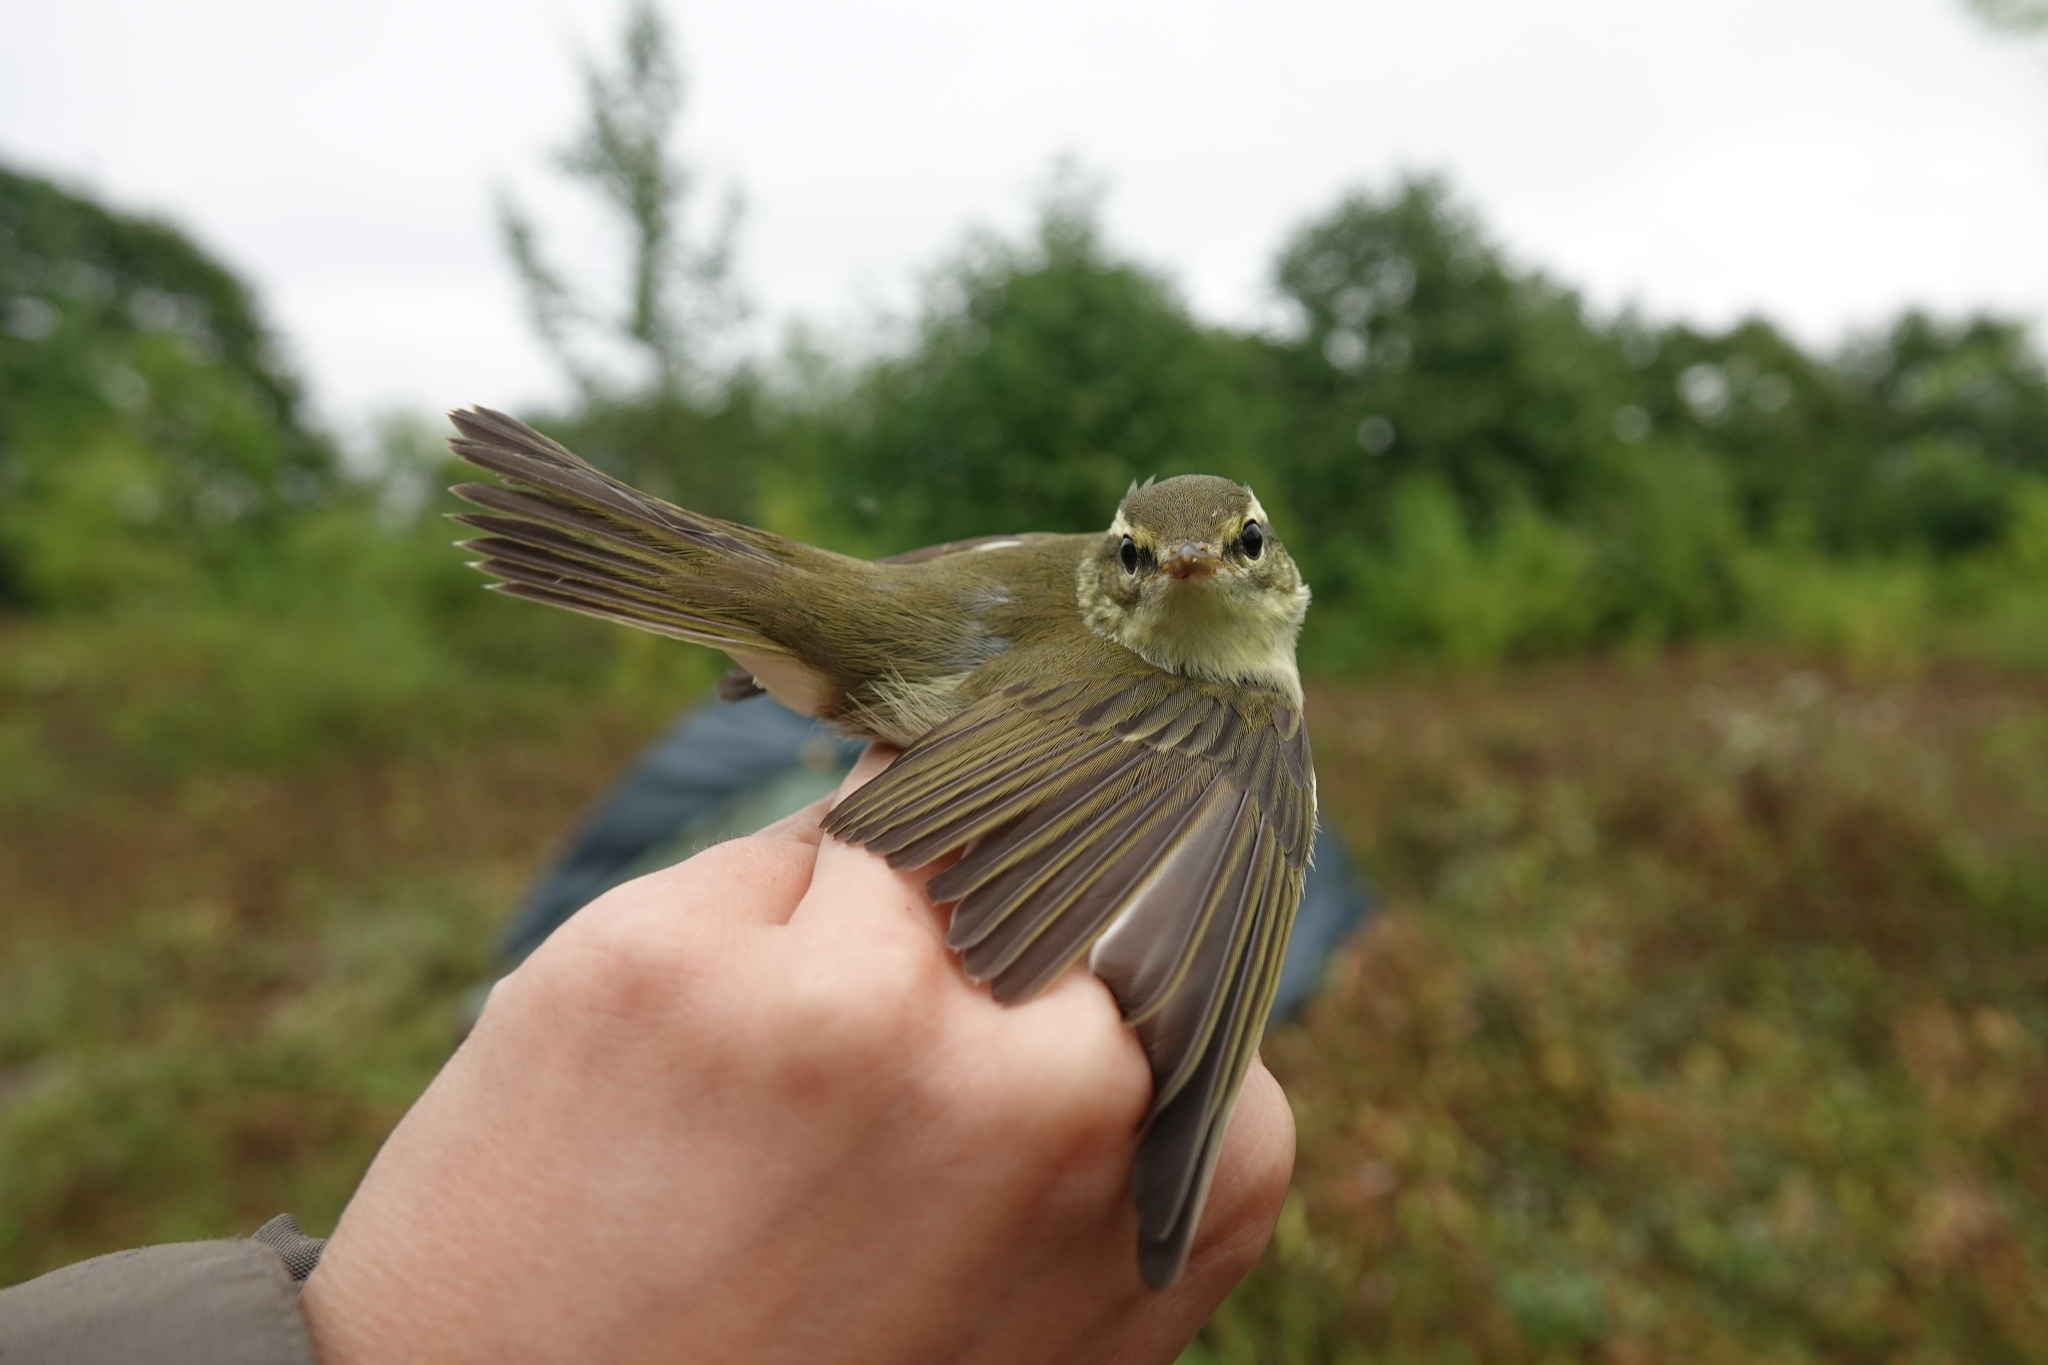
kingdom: Animalia
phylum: Chordata
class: Aves
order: Passeriformes
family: Phylloscopidae
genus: Phylloscopus
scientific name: Phylloscopus examinandus
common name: Kamchatka leaf warbler
